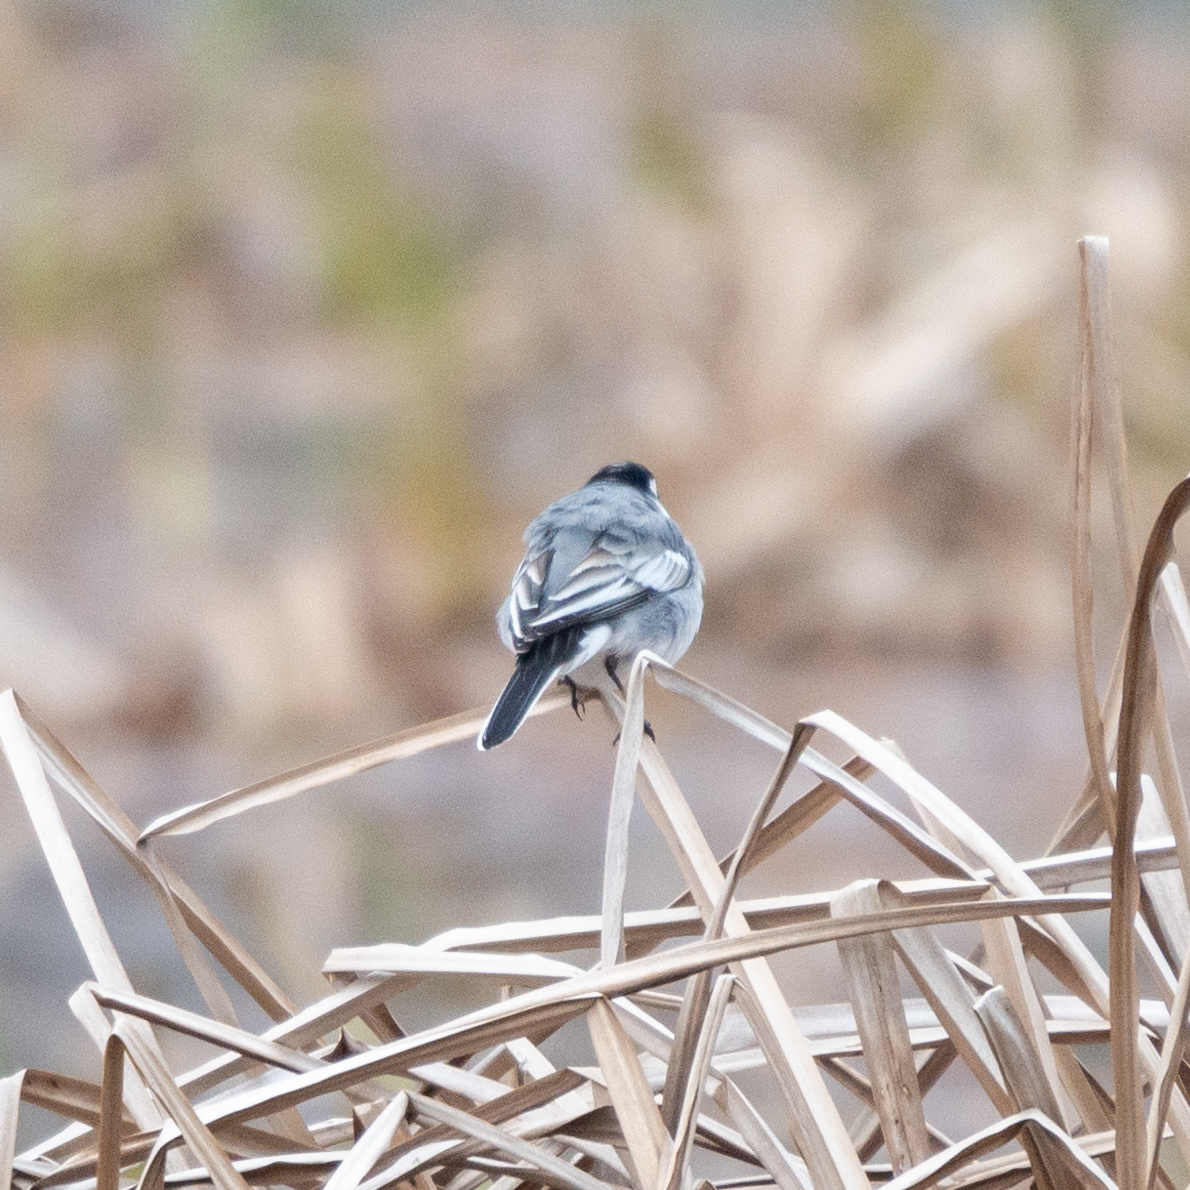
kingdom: Animalia
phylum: Chordata
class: Aves
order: Passeriformes
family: Motacillidae
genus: Motacilla
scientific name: Motacilla alba
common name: White wagtail
